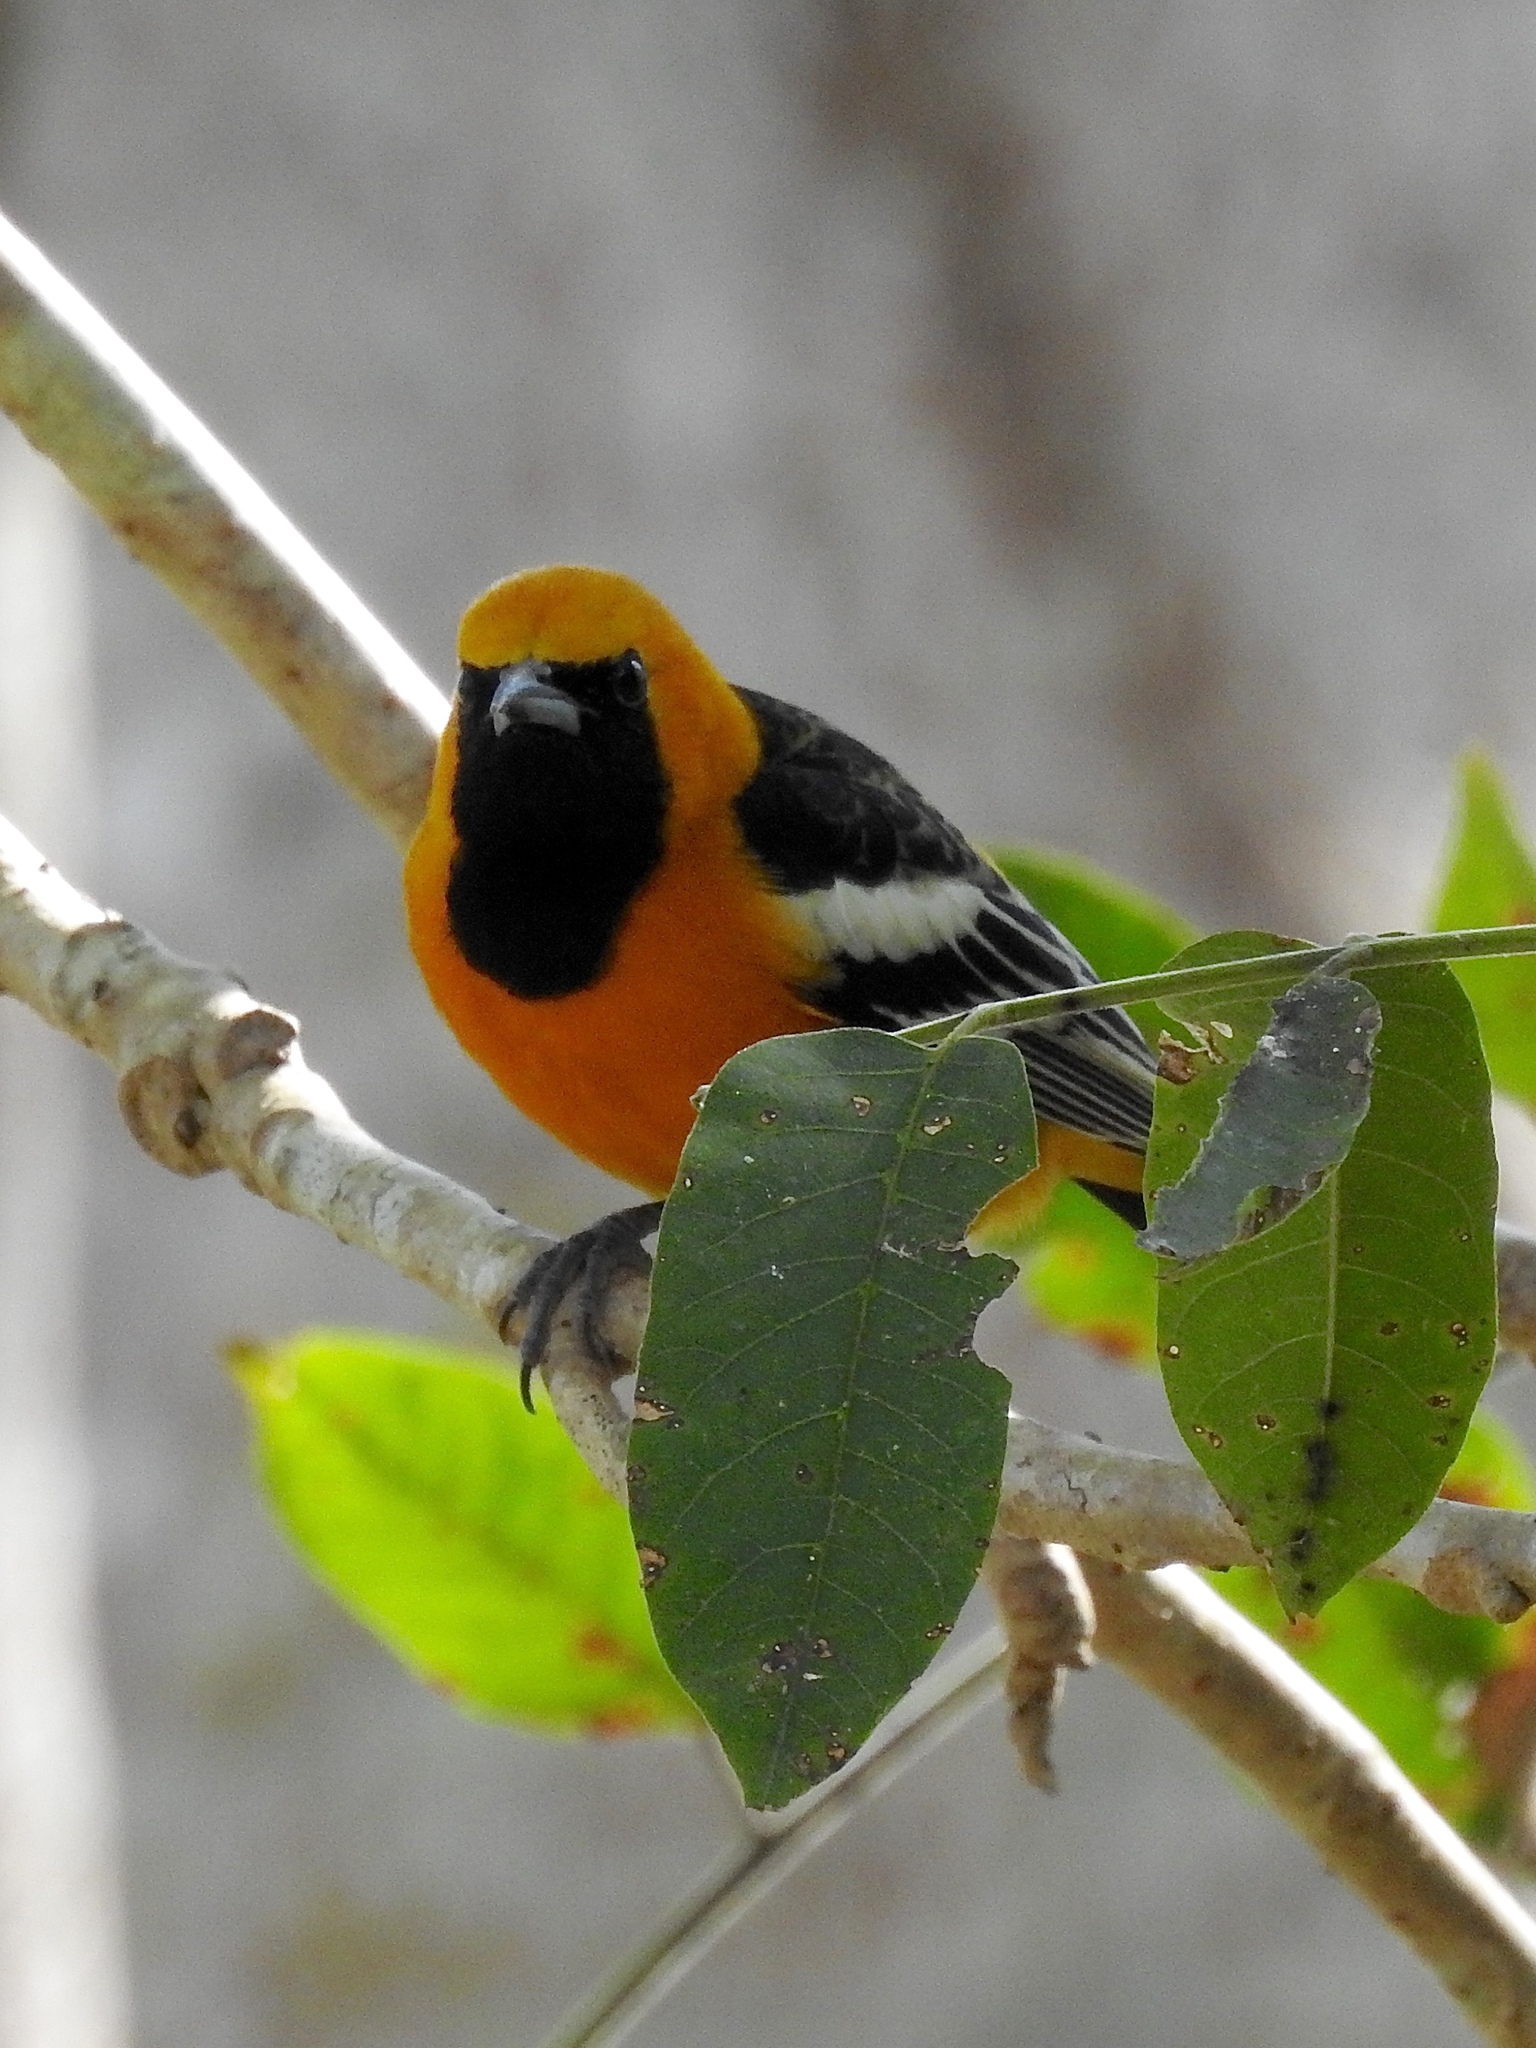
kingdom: Animalia
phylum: Chordata
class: Aves
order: Passeriformes
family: Icteridae
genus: Icterus
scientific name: Icterus cucullatus
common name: Hooded oriole
